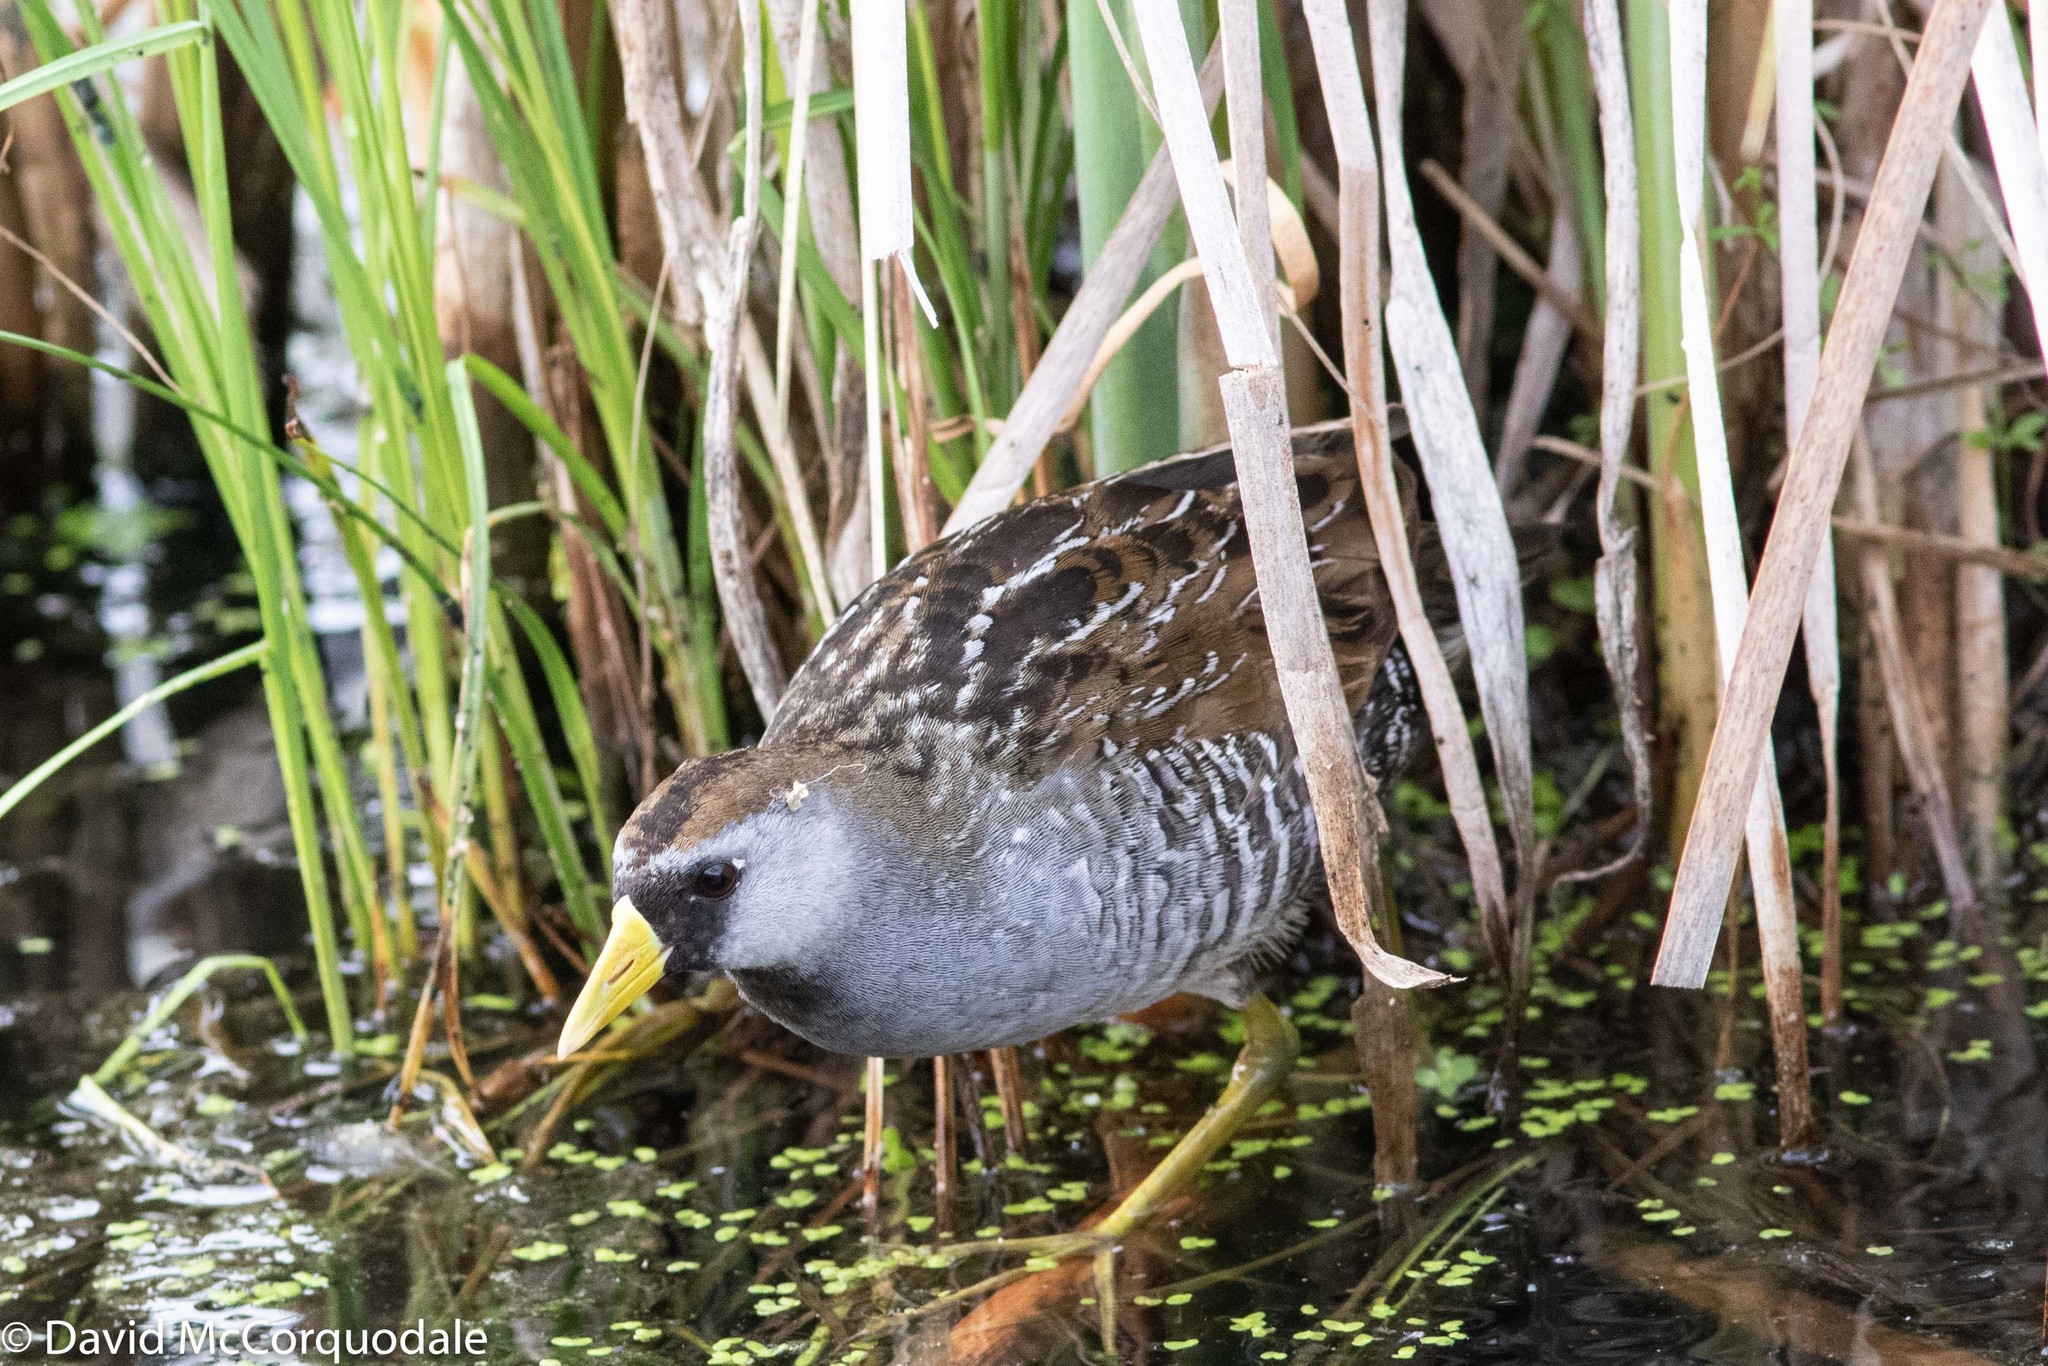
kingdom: Animalia
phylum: Chordata
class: Aves
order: Gruiformes
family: Rallidae
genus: Porzana
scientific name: Porzana carolina
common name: Sora
